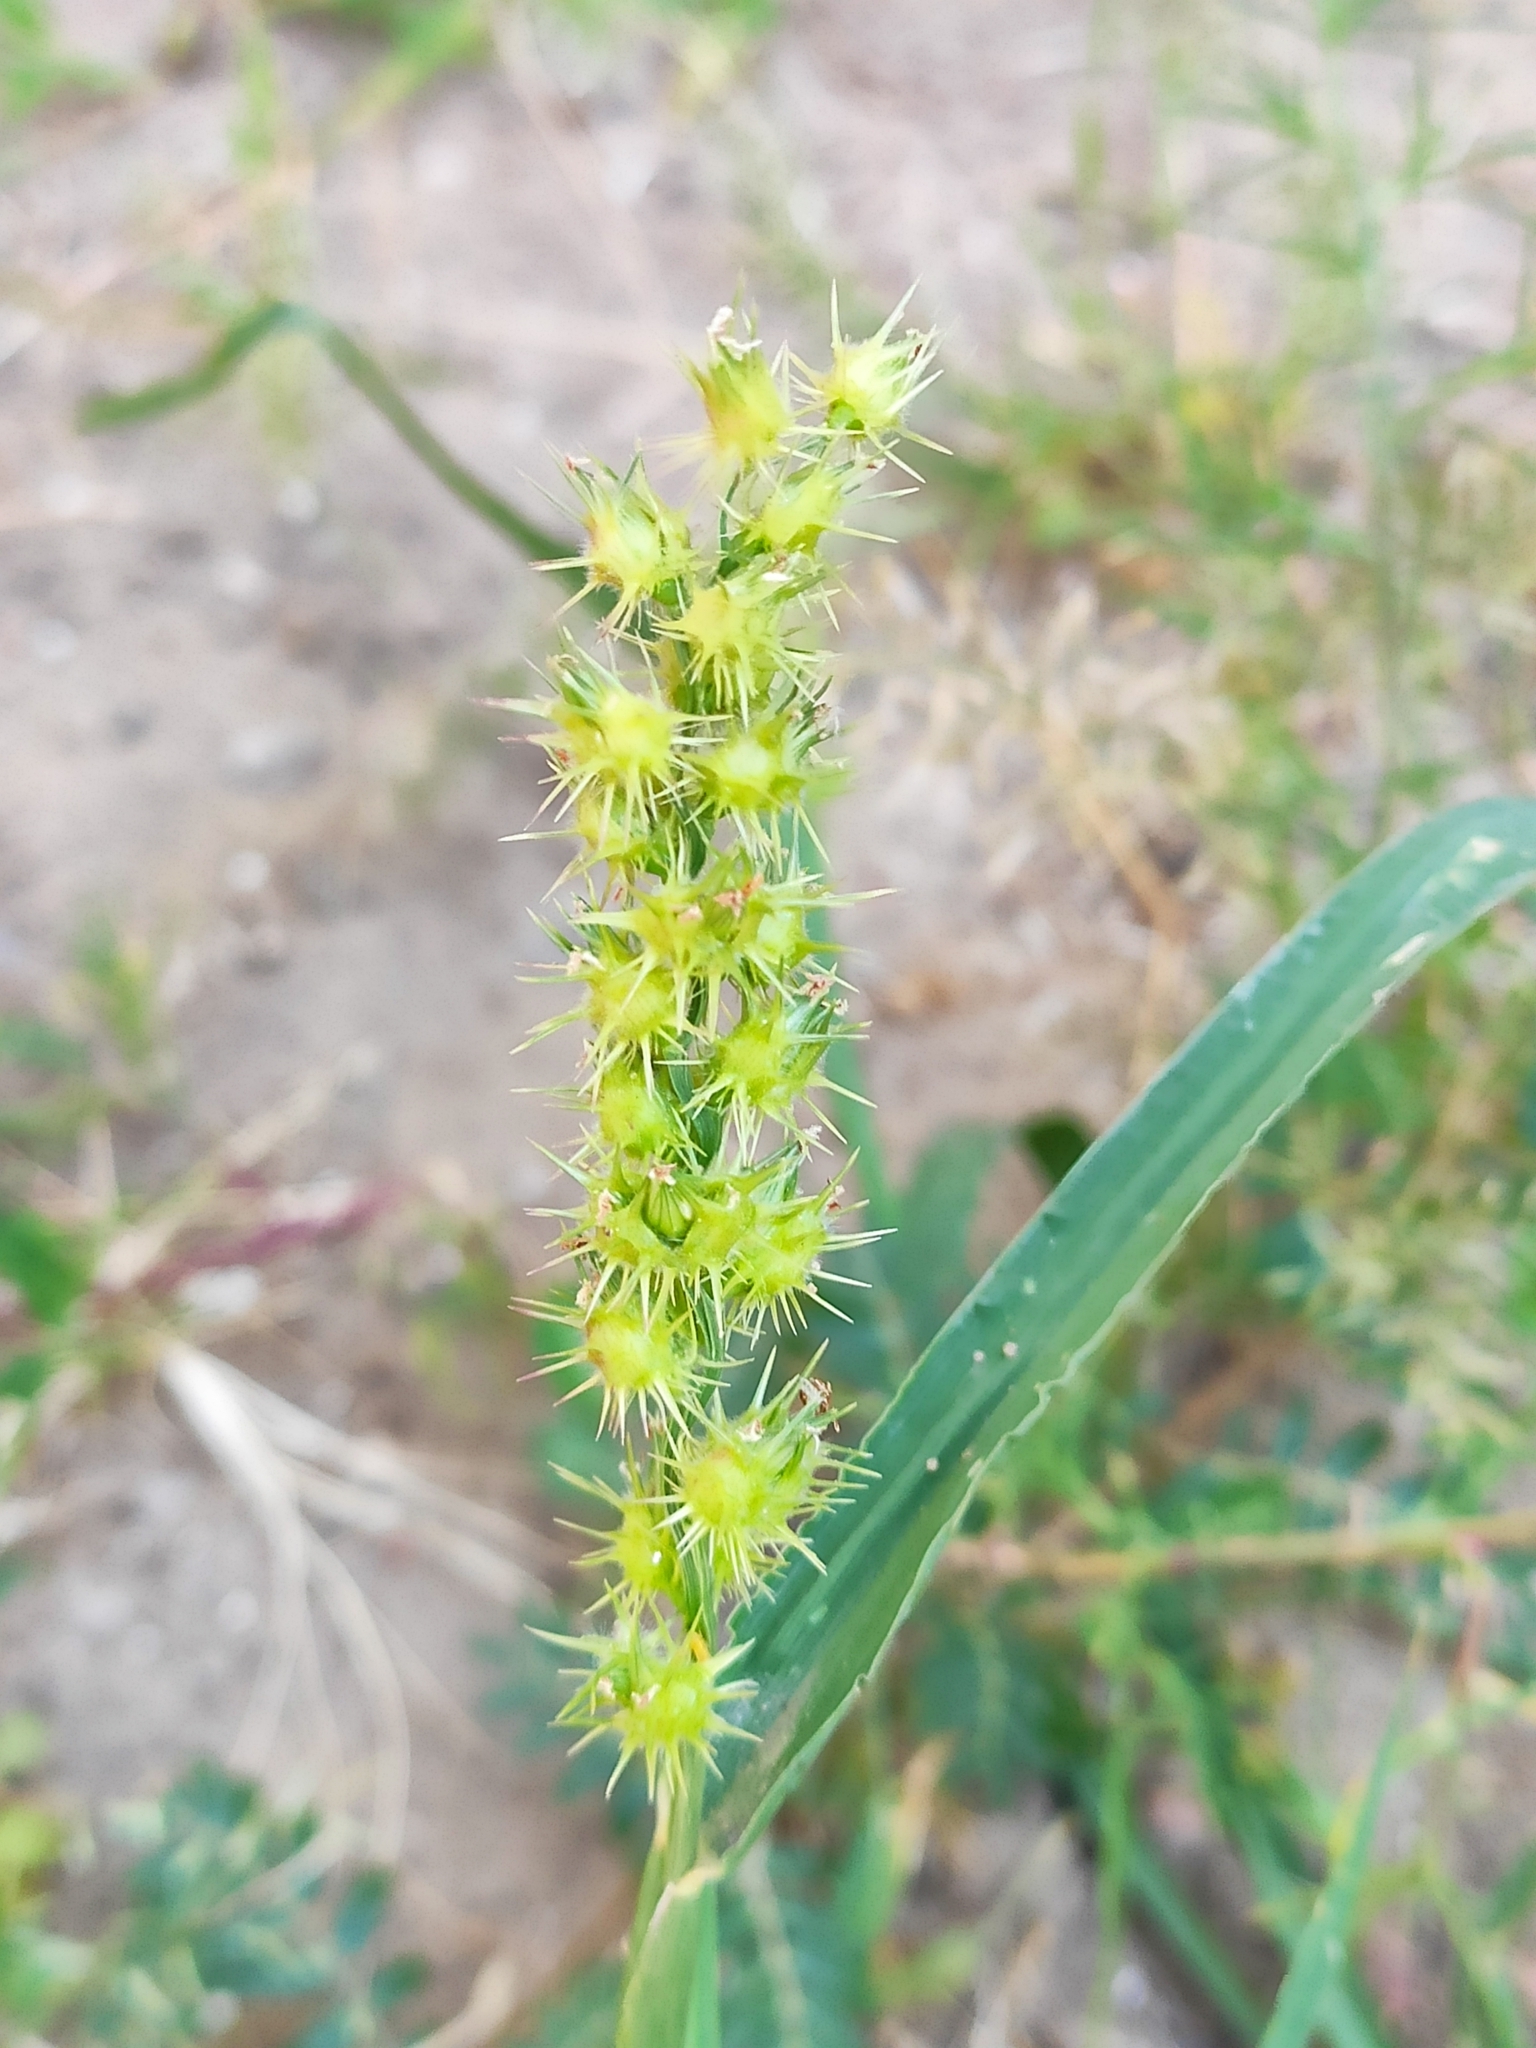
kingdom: Plantae
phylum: Tracheophyta
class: Liliopsida
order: Poales
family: Poaceae
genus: Cenchrus
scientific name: Cenchrus longispinus
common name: Mat sandbur
